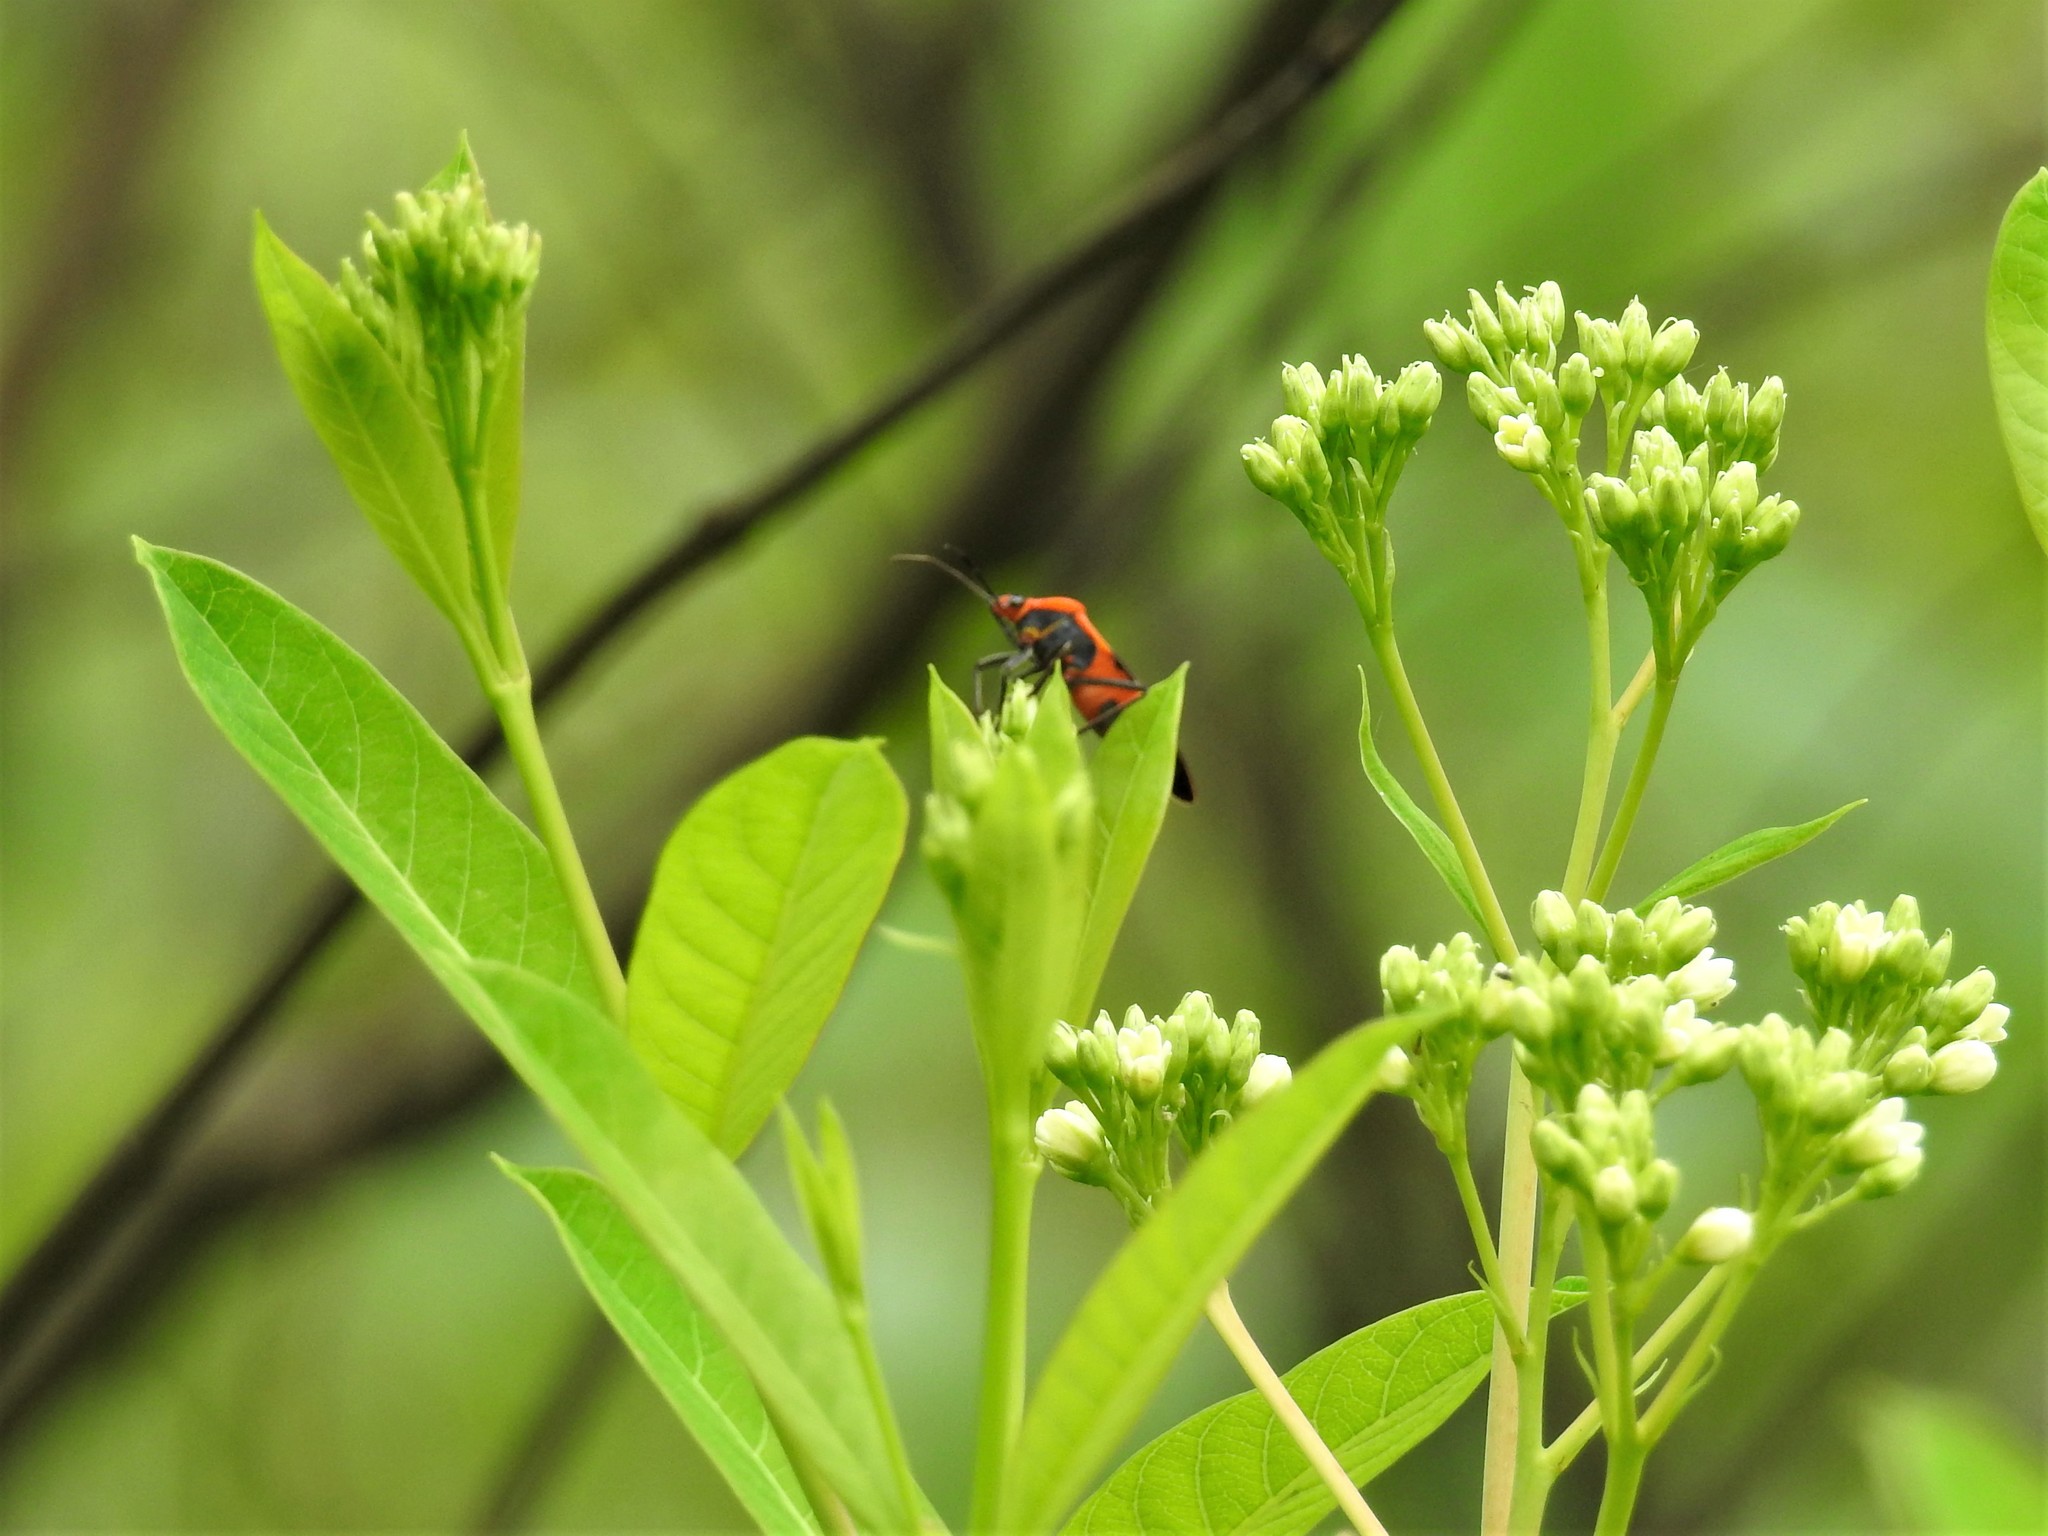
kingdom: Animalia
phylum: Arthropoda
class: Insecta
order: Hemiptera
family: Lygaeidae
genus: Oncopeltus
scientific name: Oncopeltus fasciatus
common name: Large milkweed bug
